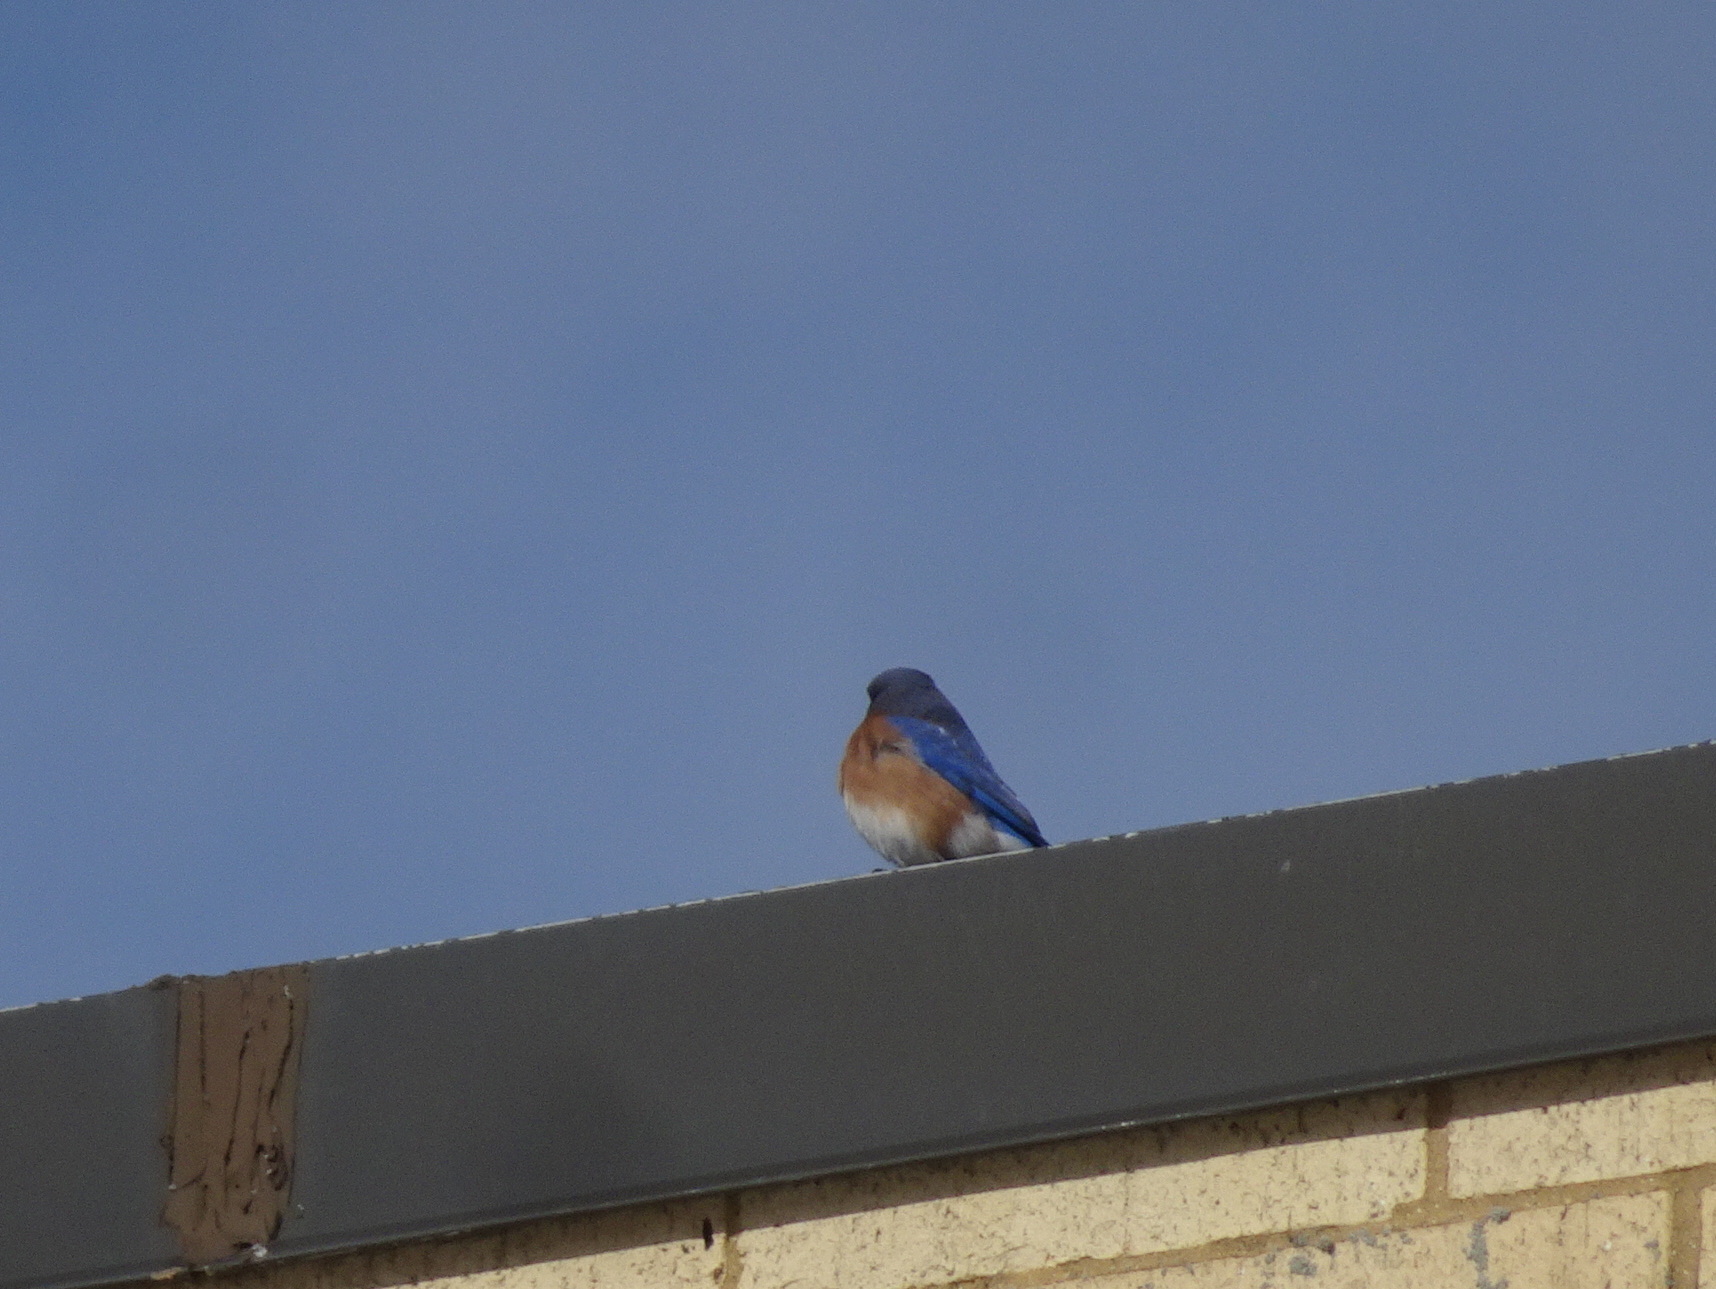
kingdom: Animalia
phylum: Chordata
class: Aves
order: Passeriformes
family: Turdidae
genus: Sialia
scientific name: Sialia sialis
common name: Eastern bluebird
